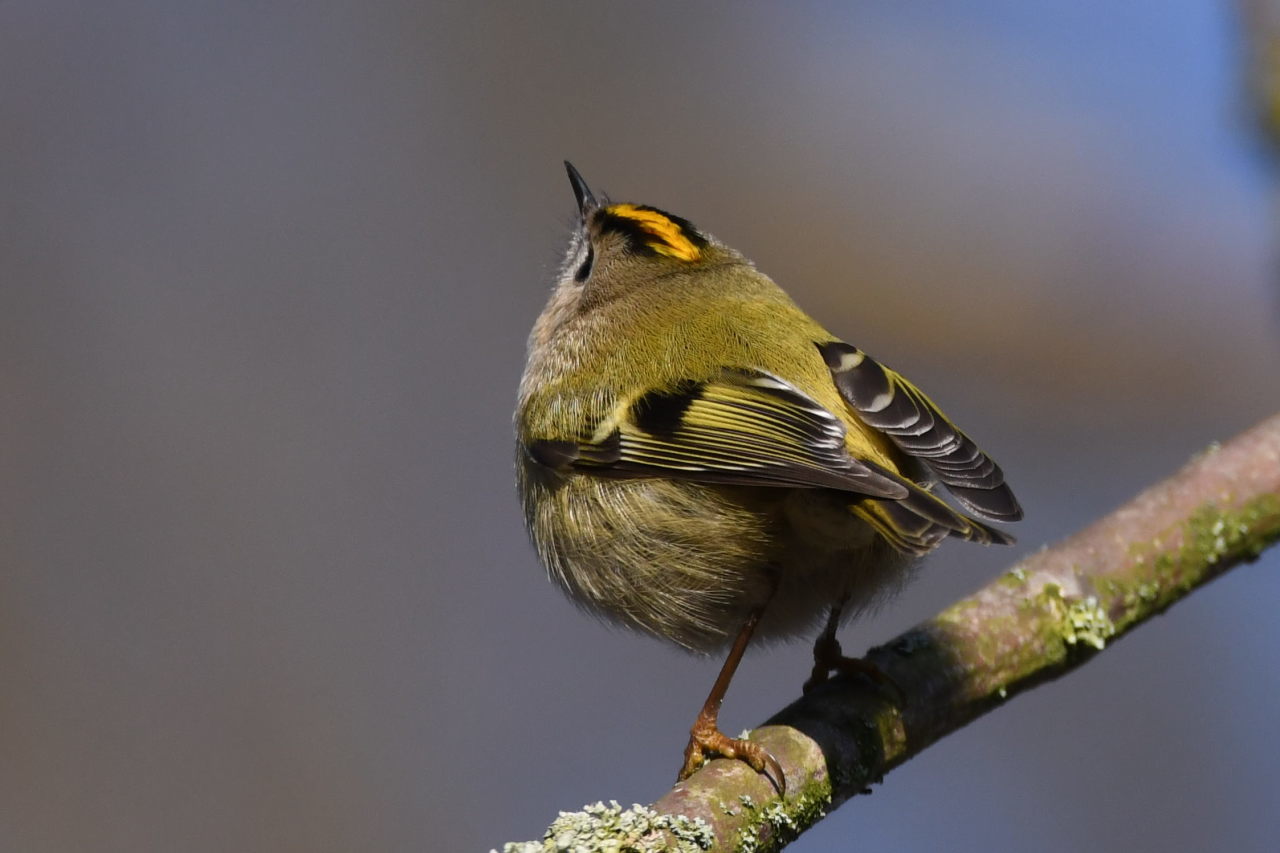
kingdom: Animalia
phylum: Chordata
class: Aves
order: Passeriformes
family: Regulidae
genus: Regulus
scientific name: Regulus regulus
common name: Goldcrest
